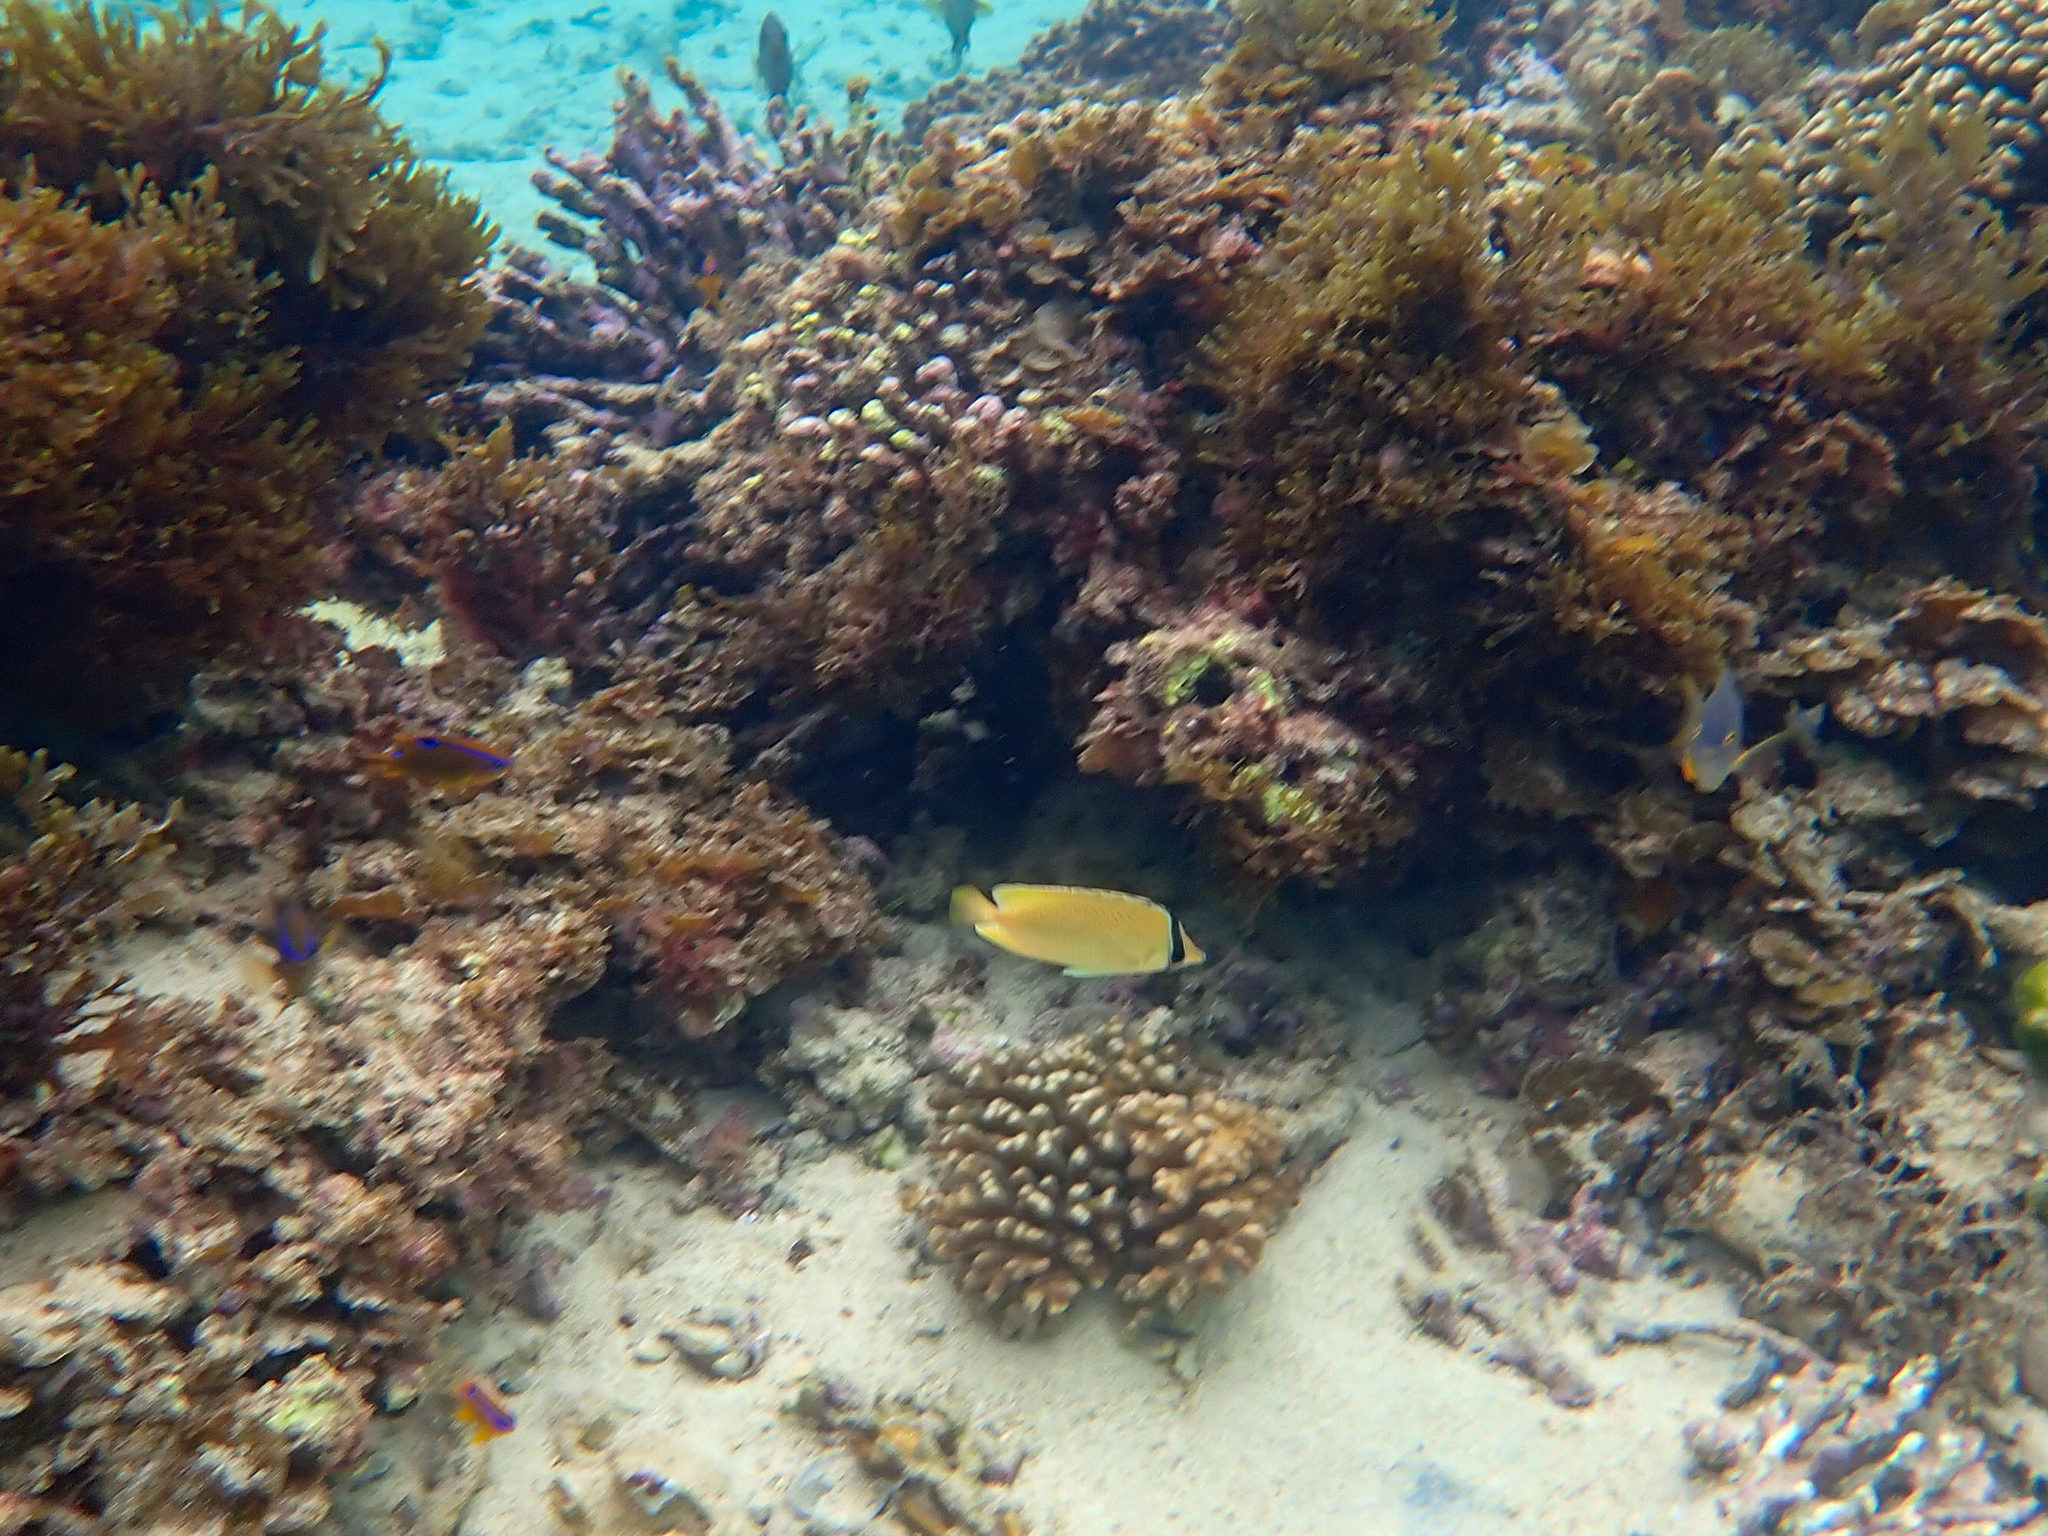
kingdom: Animalia
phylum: Chordata
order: Perciformes
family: Chaetodontidae
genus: Chaetodon
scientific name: Chaetodon citrinellus
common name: Speckled butterflyfish
